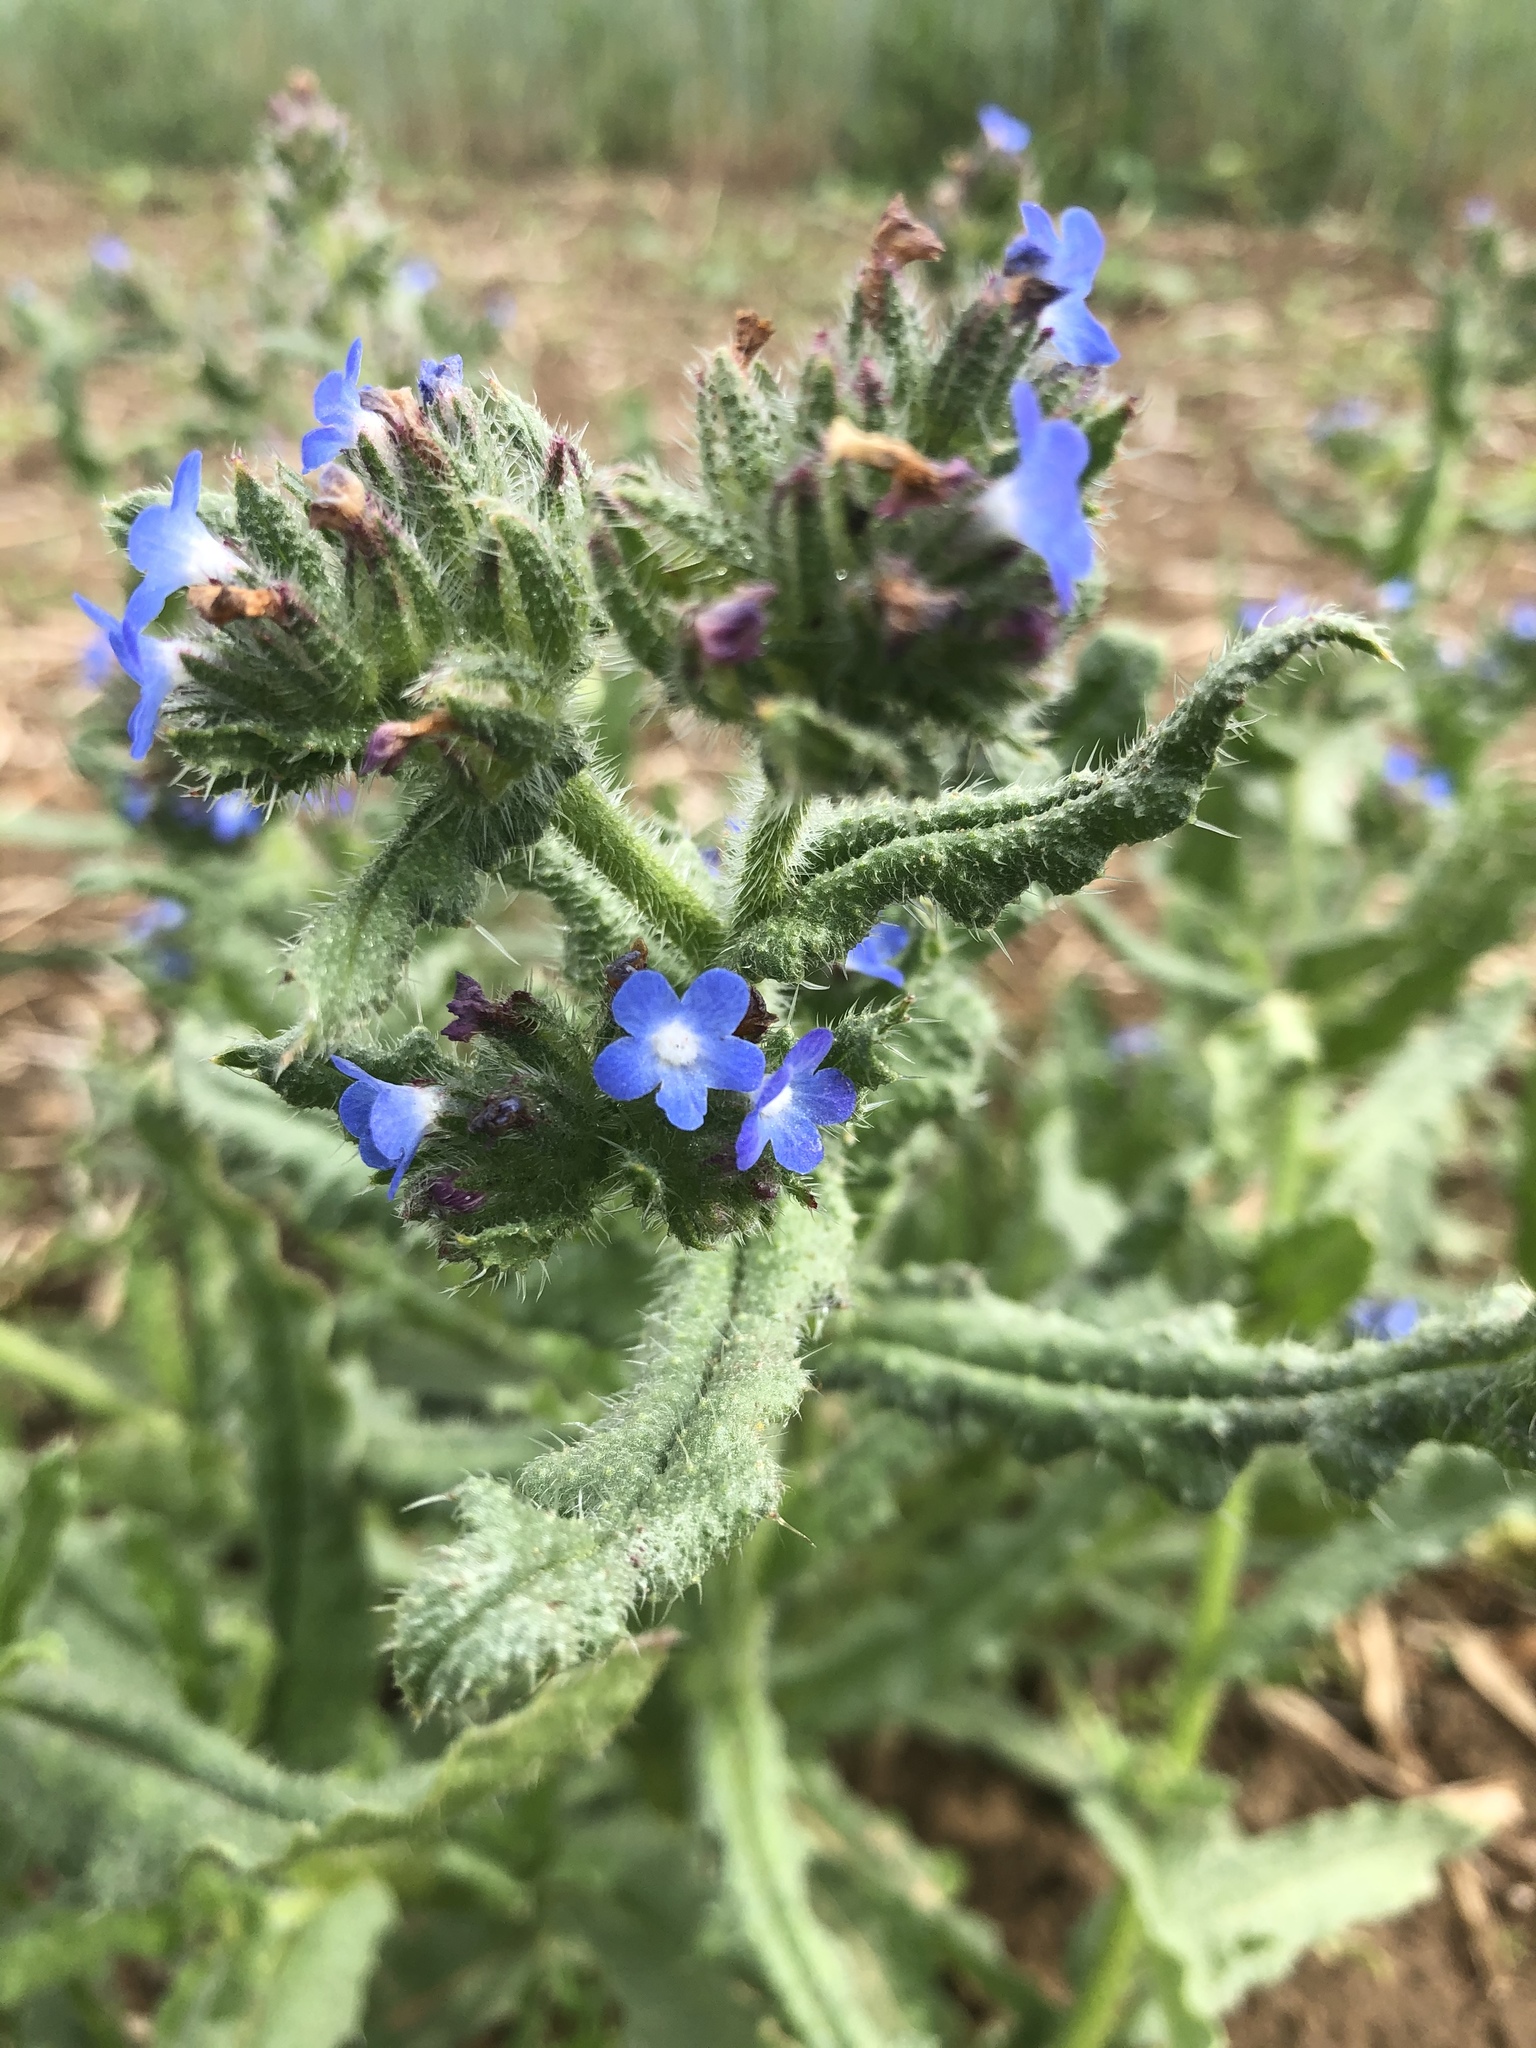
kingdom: Plantae
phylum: Tracheophyta
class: Magnoliopsida
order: Boraginales
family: Boraginaceae
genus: Lycopsis
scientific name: Lycopsis arvensis
